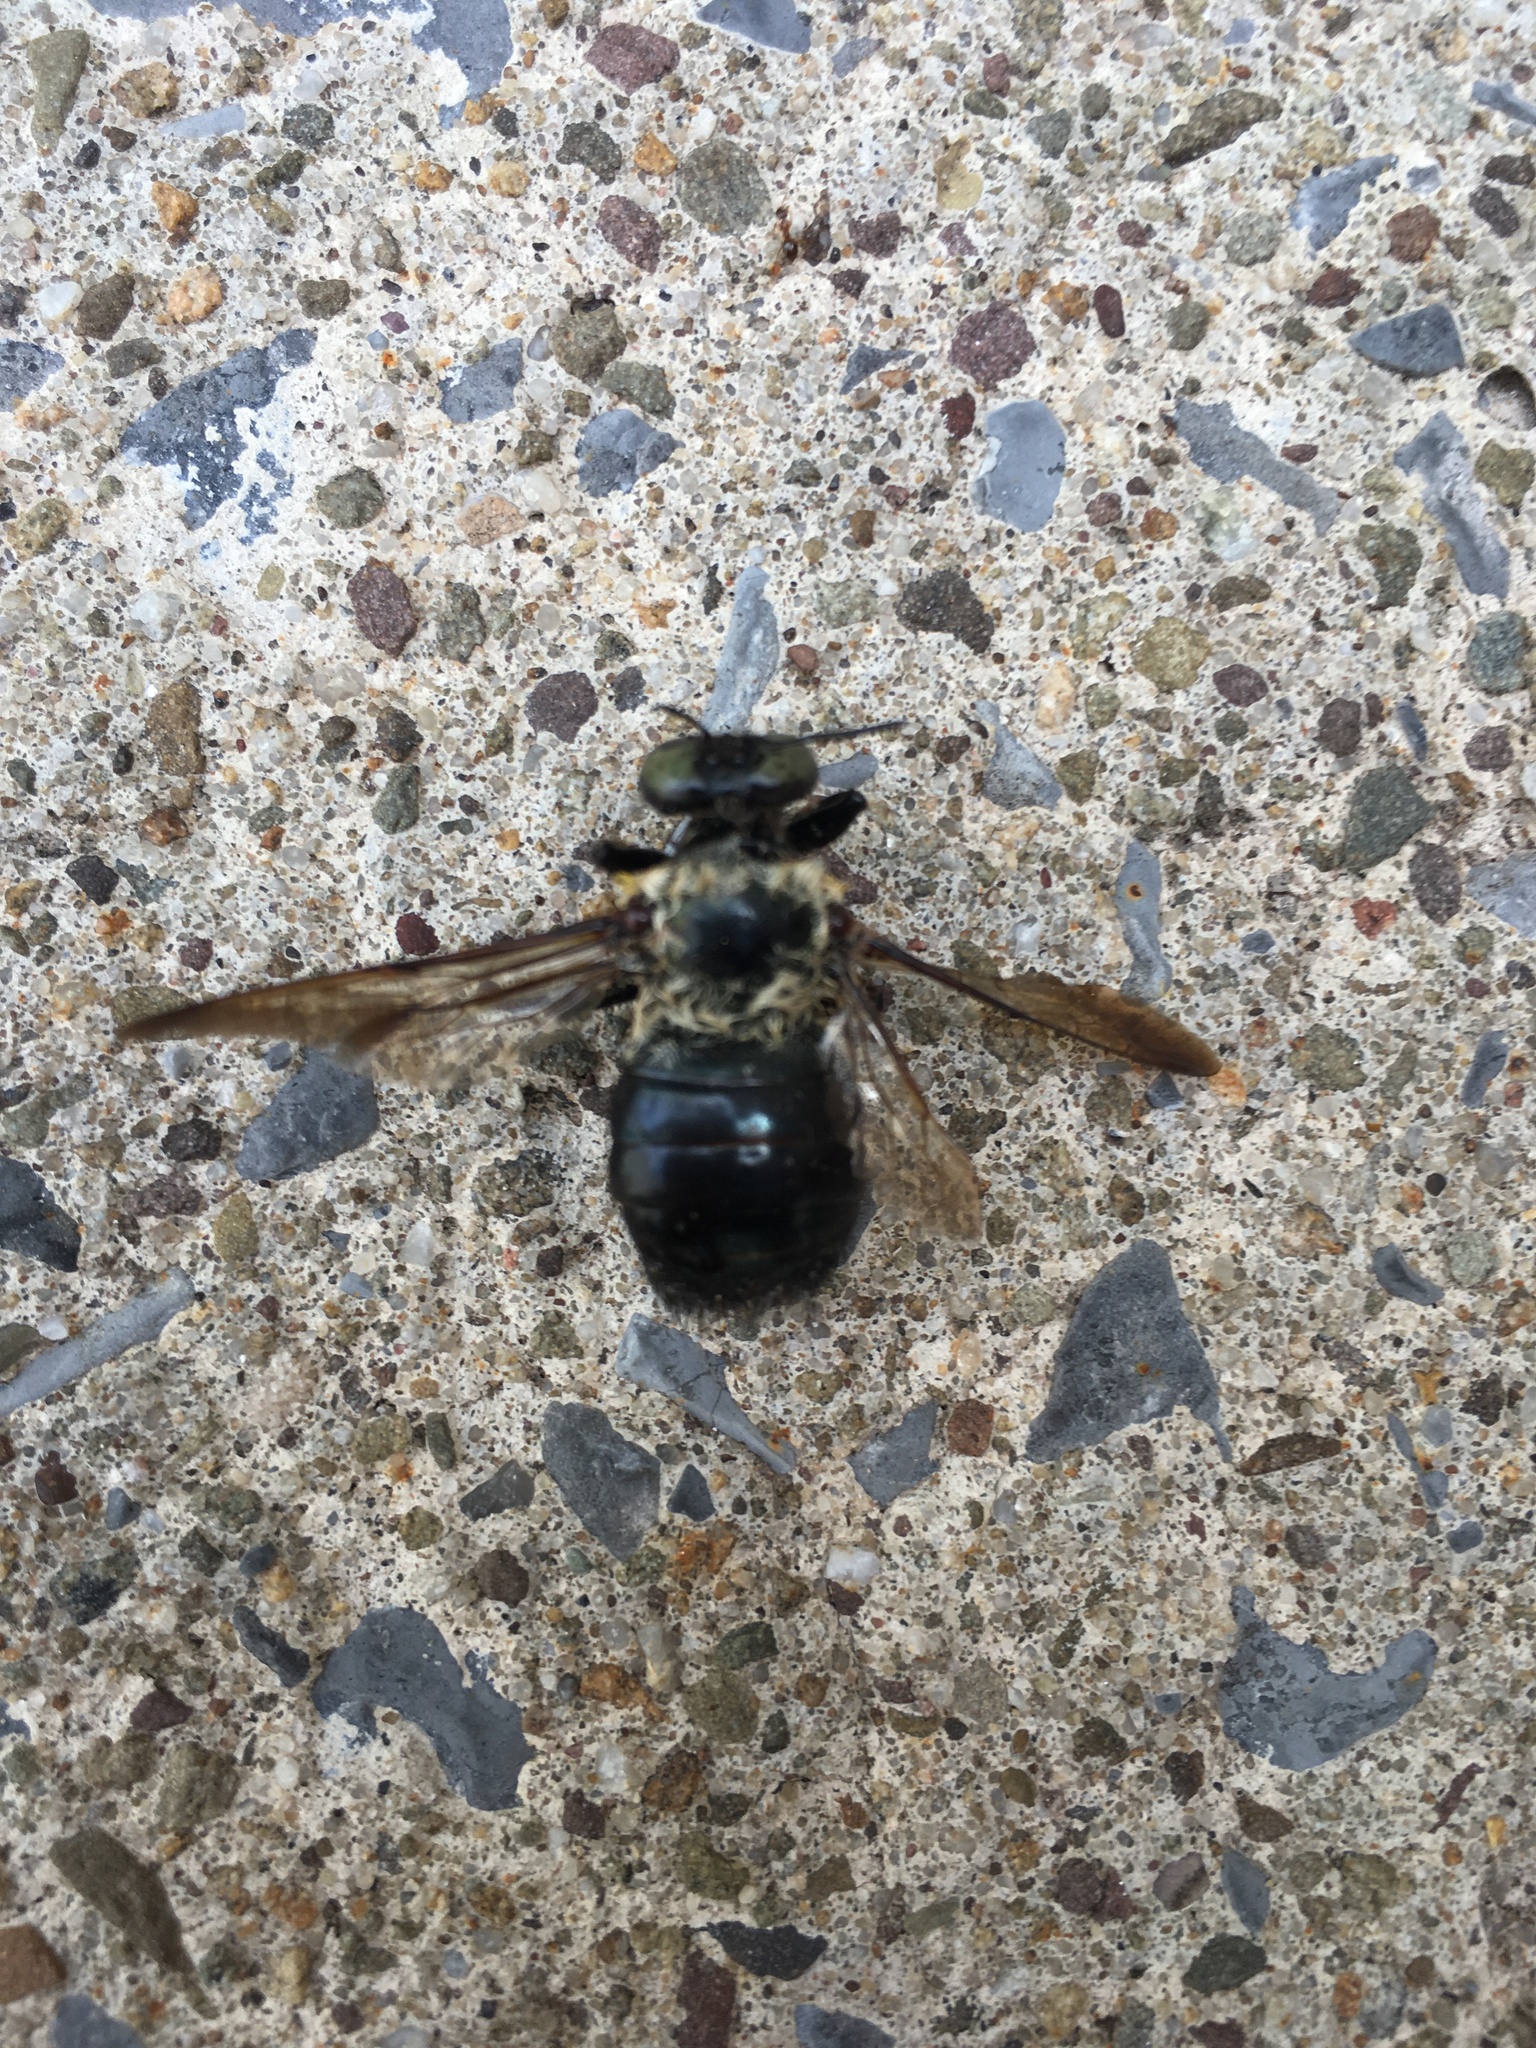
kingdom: Animalia
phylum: Arthropoda
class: Insecta
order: Hymenoptera
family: Apidae
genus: Xylocopa
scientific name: Xylocopa virginica
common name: Carpenter bee
